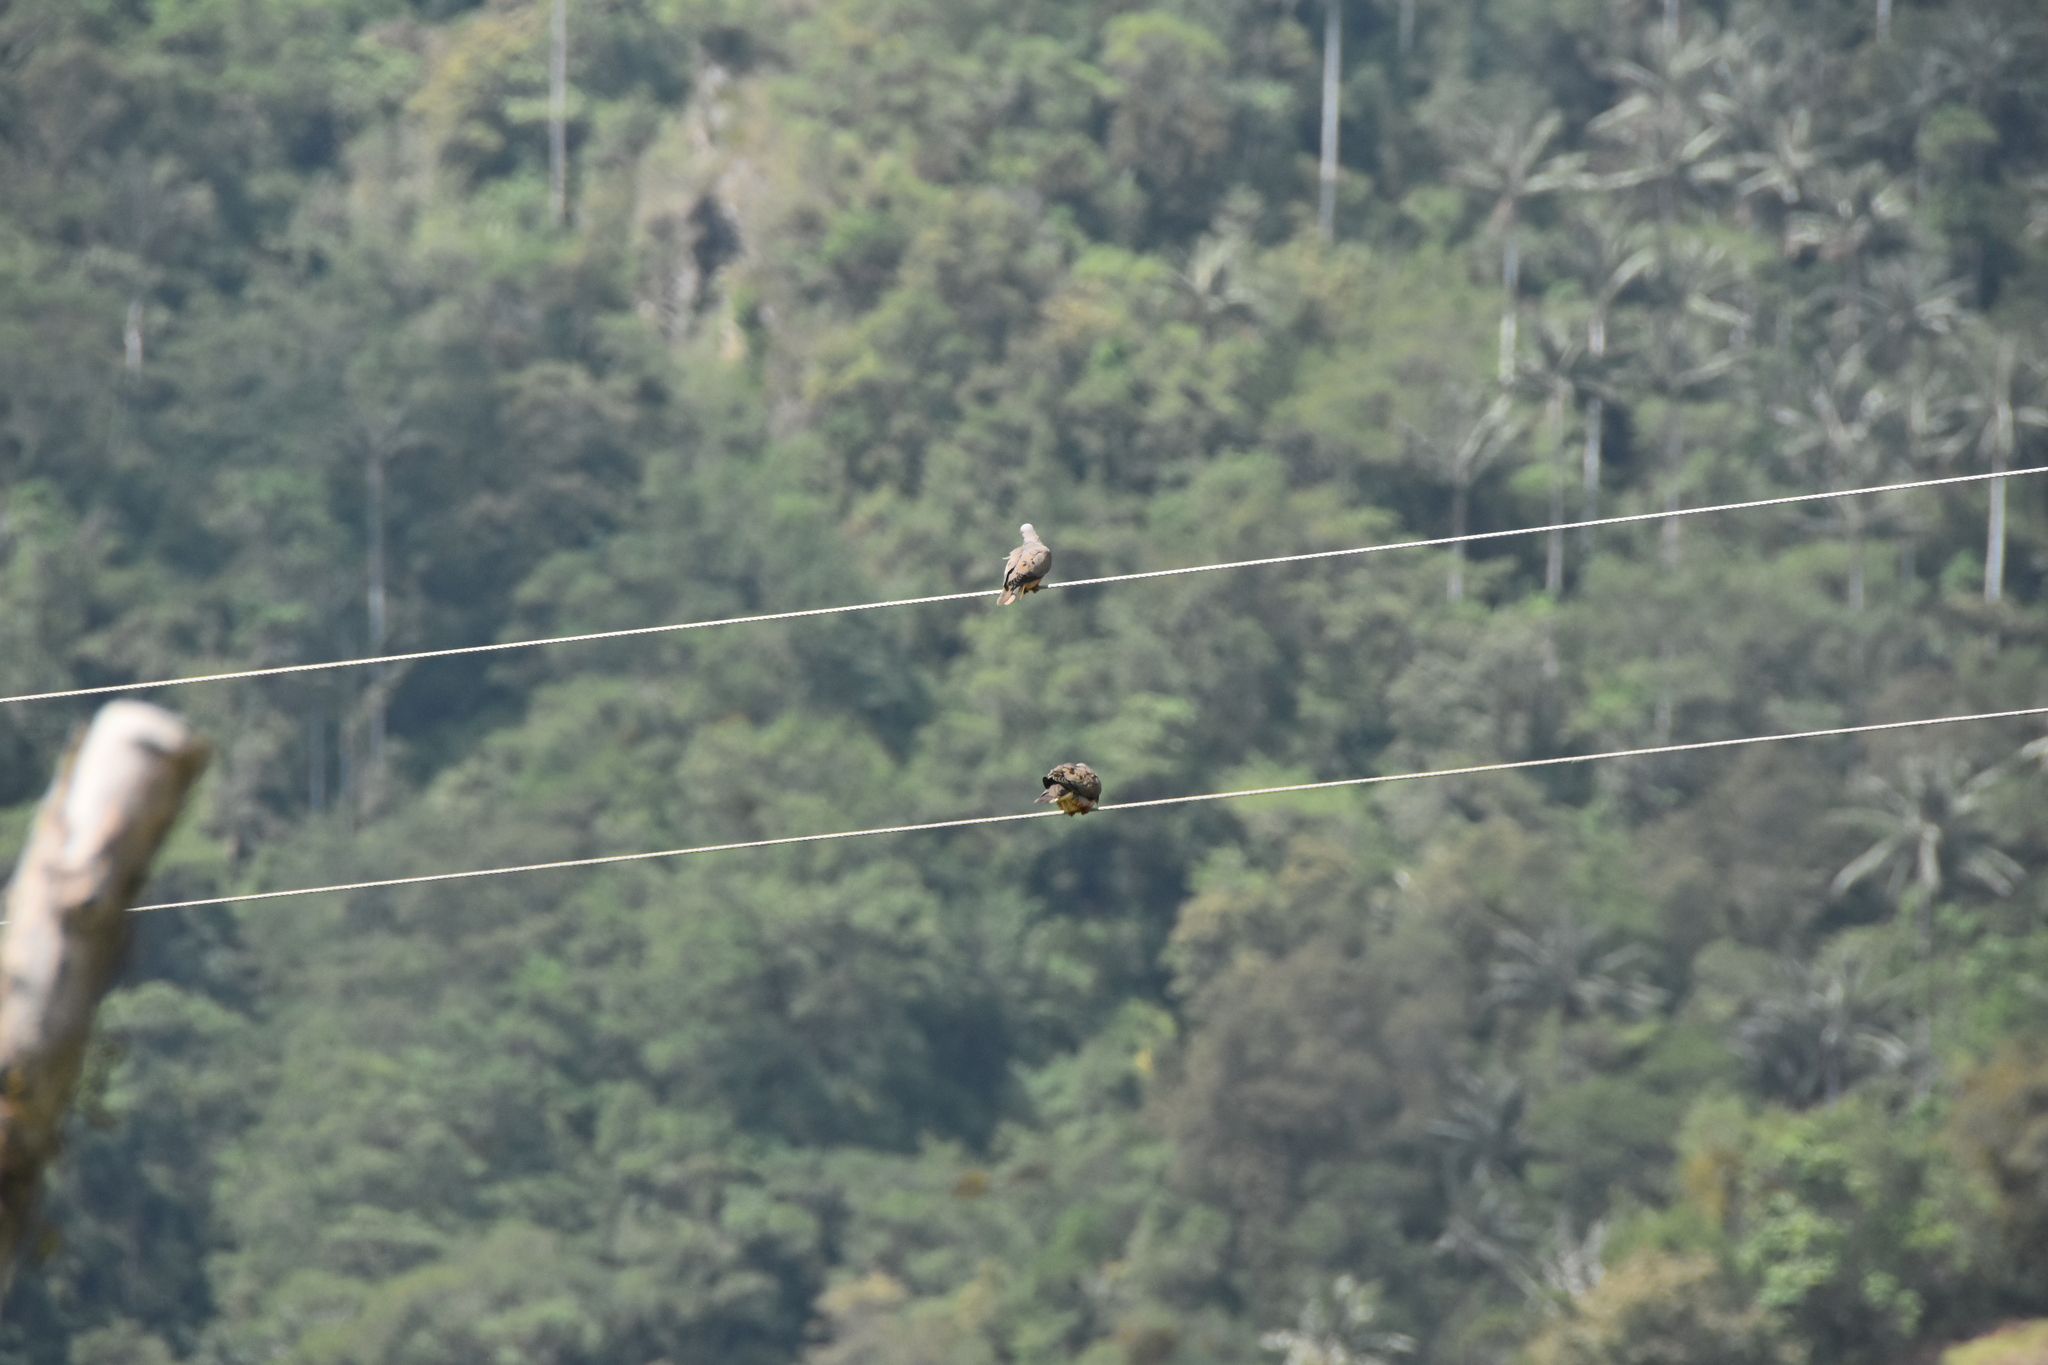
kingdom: Animalia
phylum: Chordata
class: Aves
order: Columbiformes
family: Columbidae
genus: Zenaida
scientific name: Zenaida auriculata
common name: Eared dove
